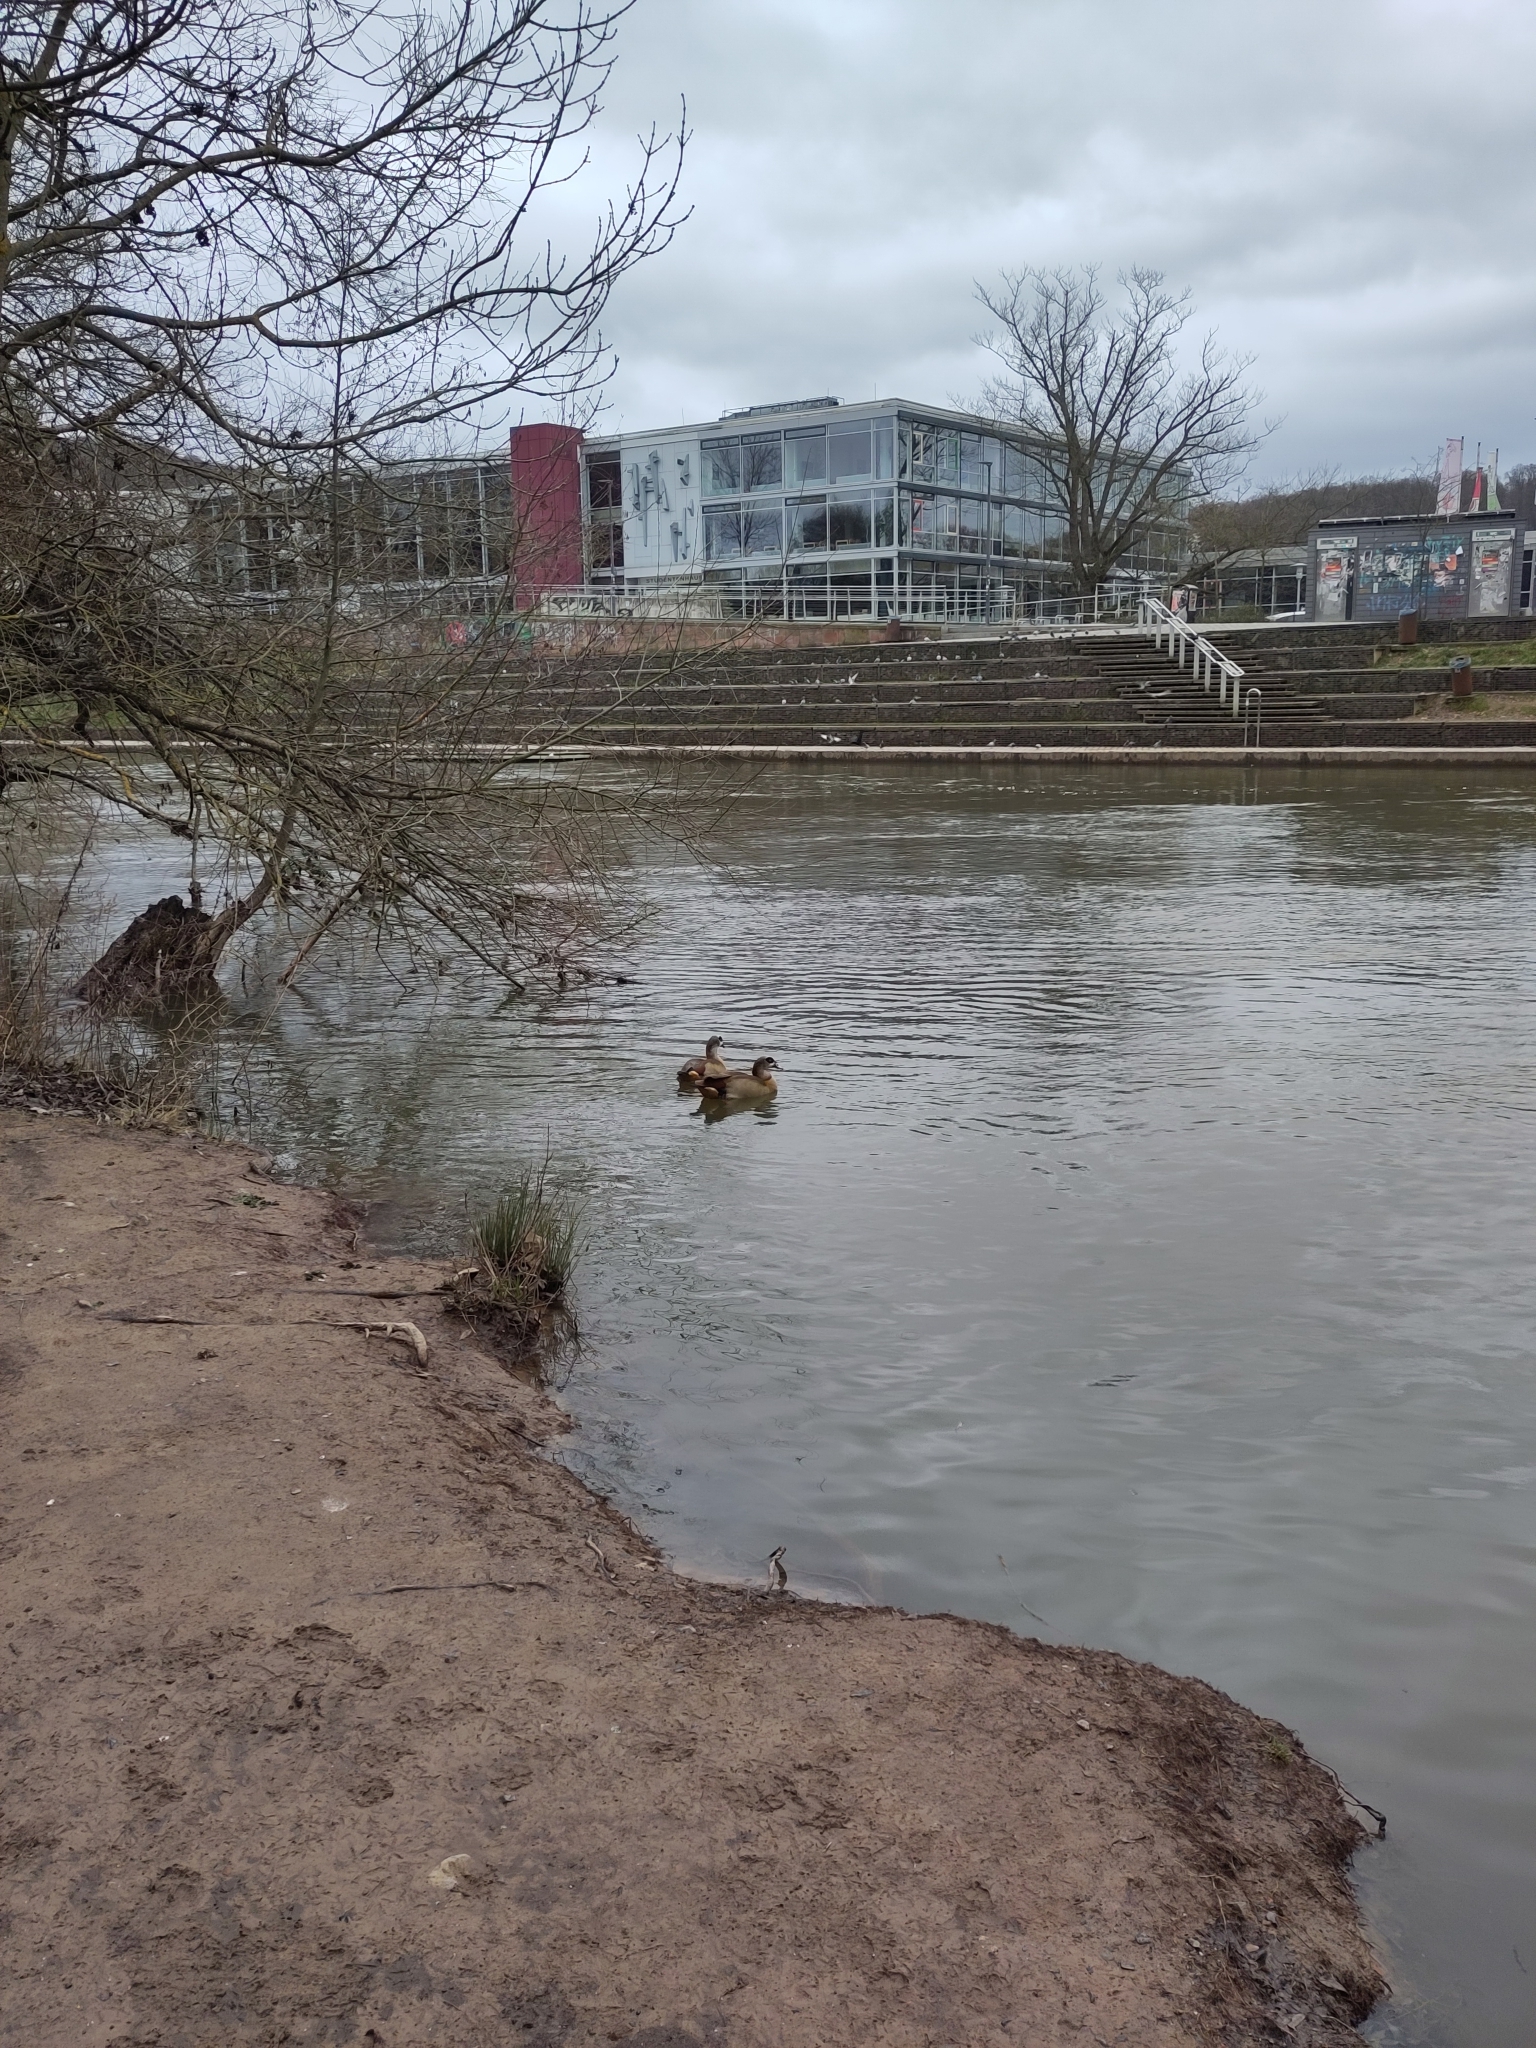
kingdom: Animalia
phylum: Chordata
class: Aves
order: Anseriformes
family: Anatidae
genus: Alopochen
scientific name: Alopochen aegyptiaca
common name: Egyptian goose
